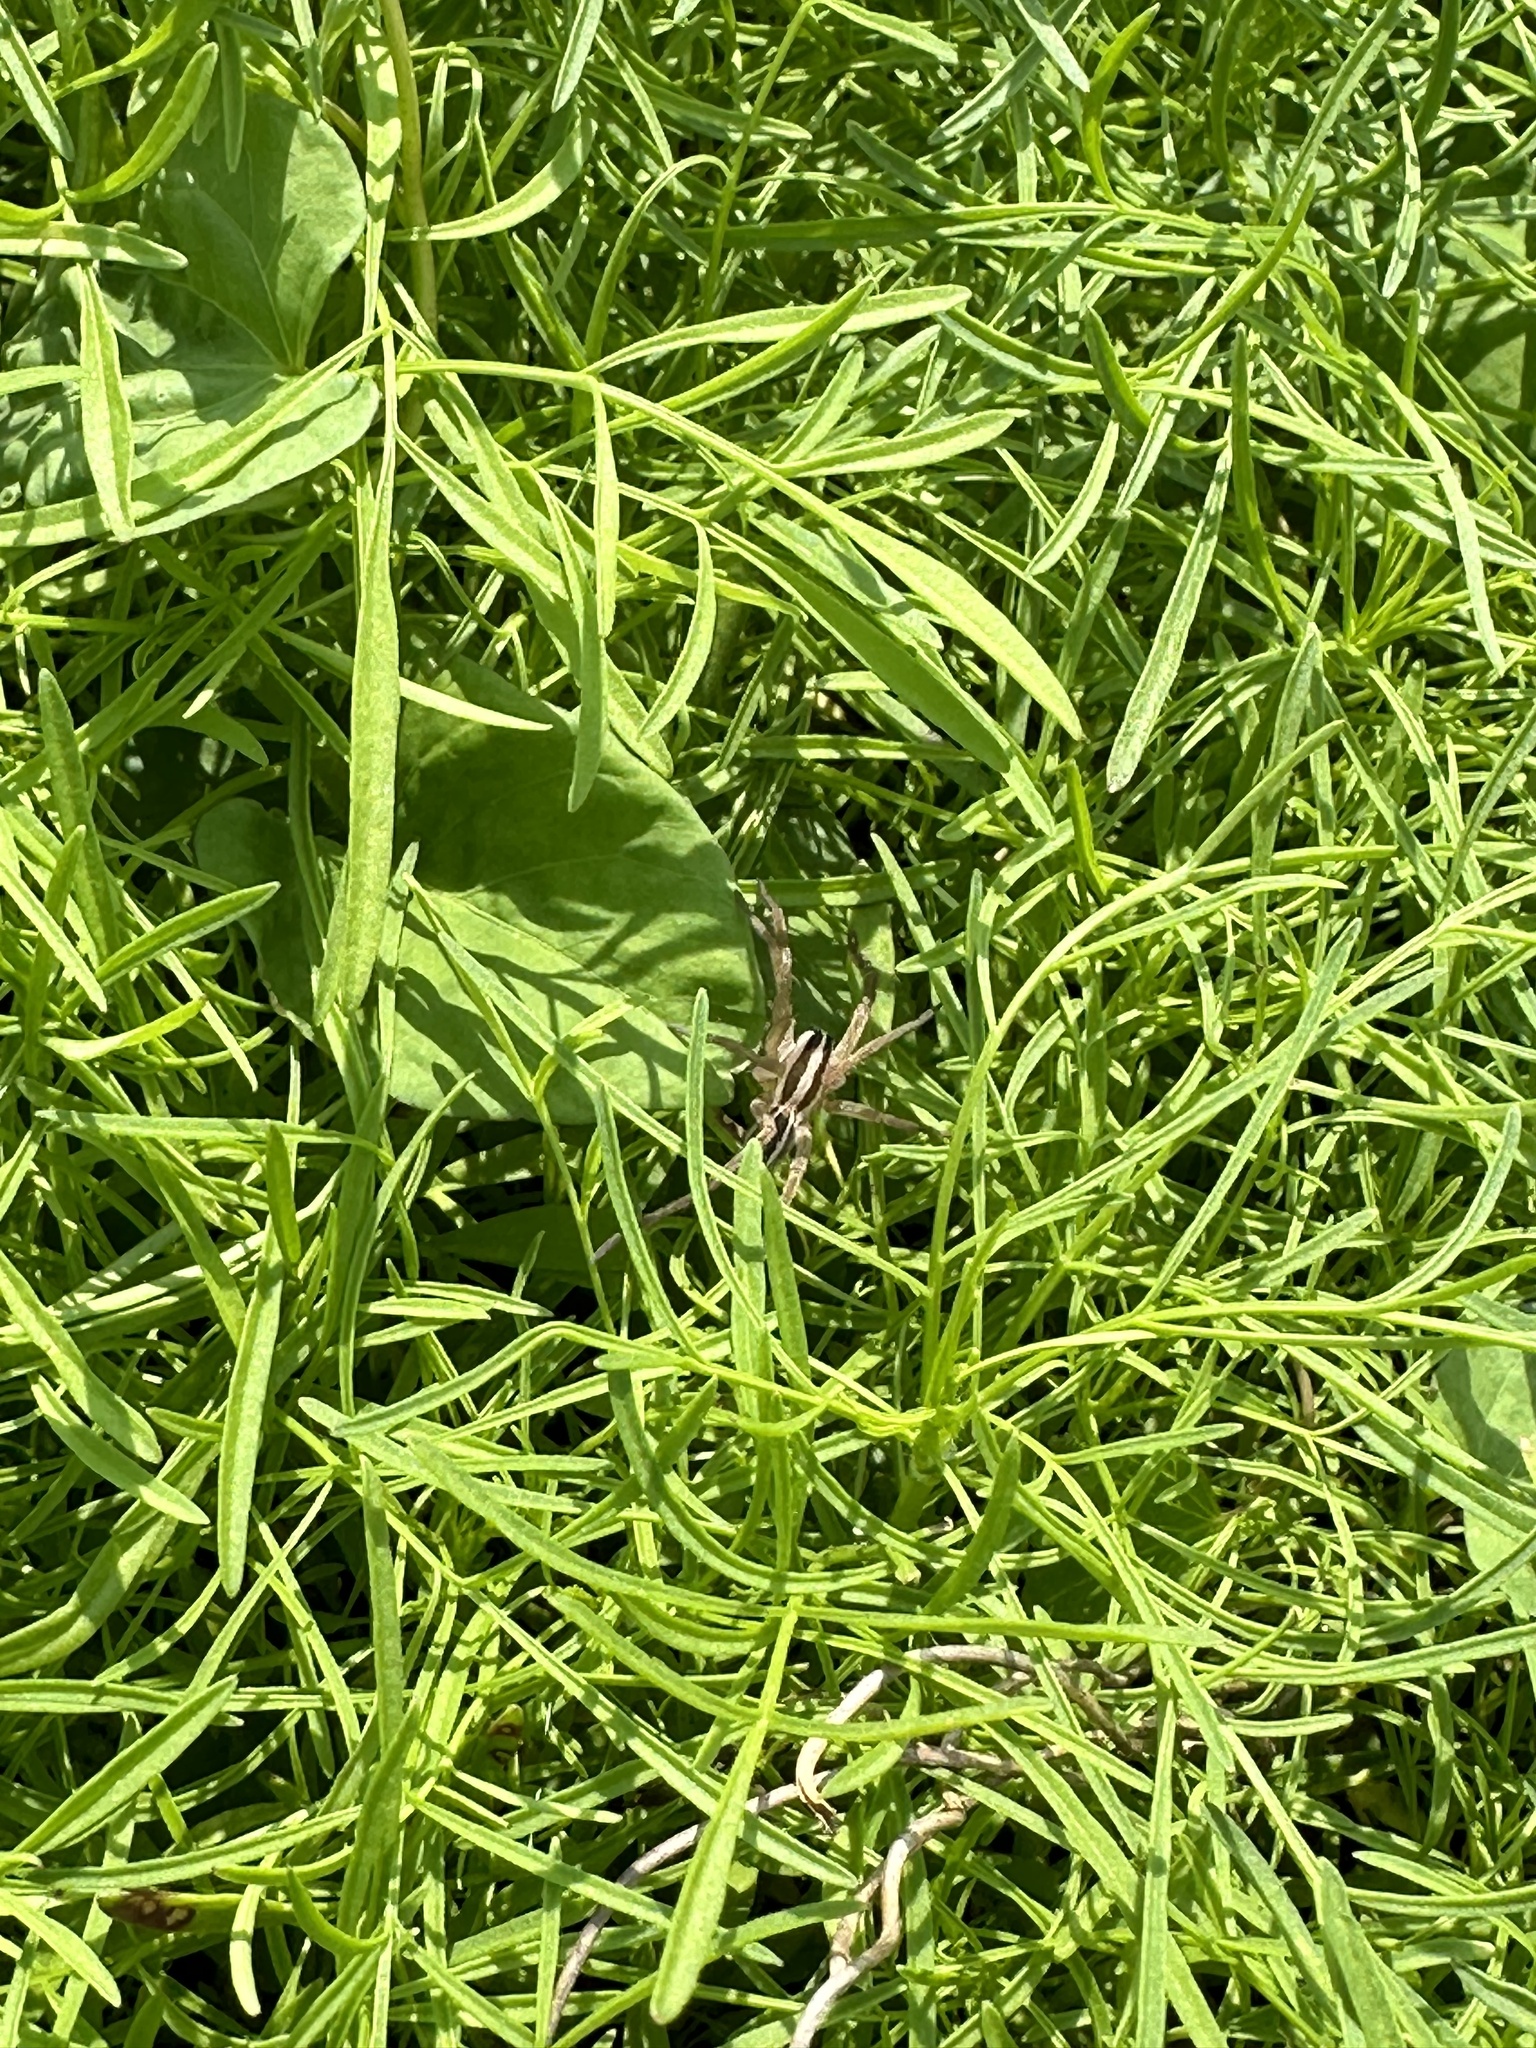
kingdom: Animalia
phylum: Arthropoda
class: Arachnida
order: Araneae
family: Lycosidae
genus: Rabidosa
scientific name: Rabidosa rabida
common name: Rabid wolf spider
